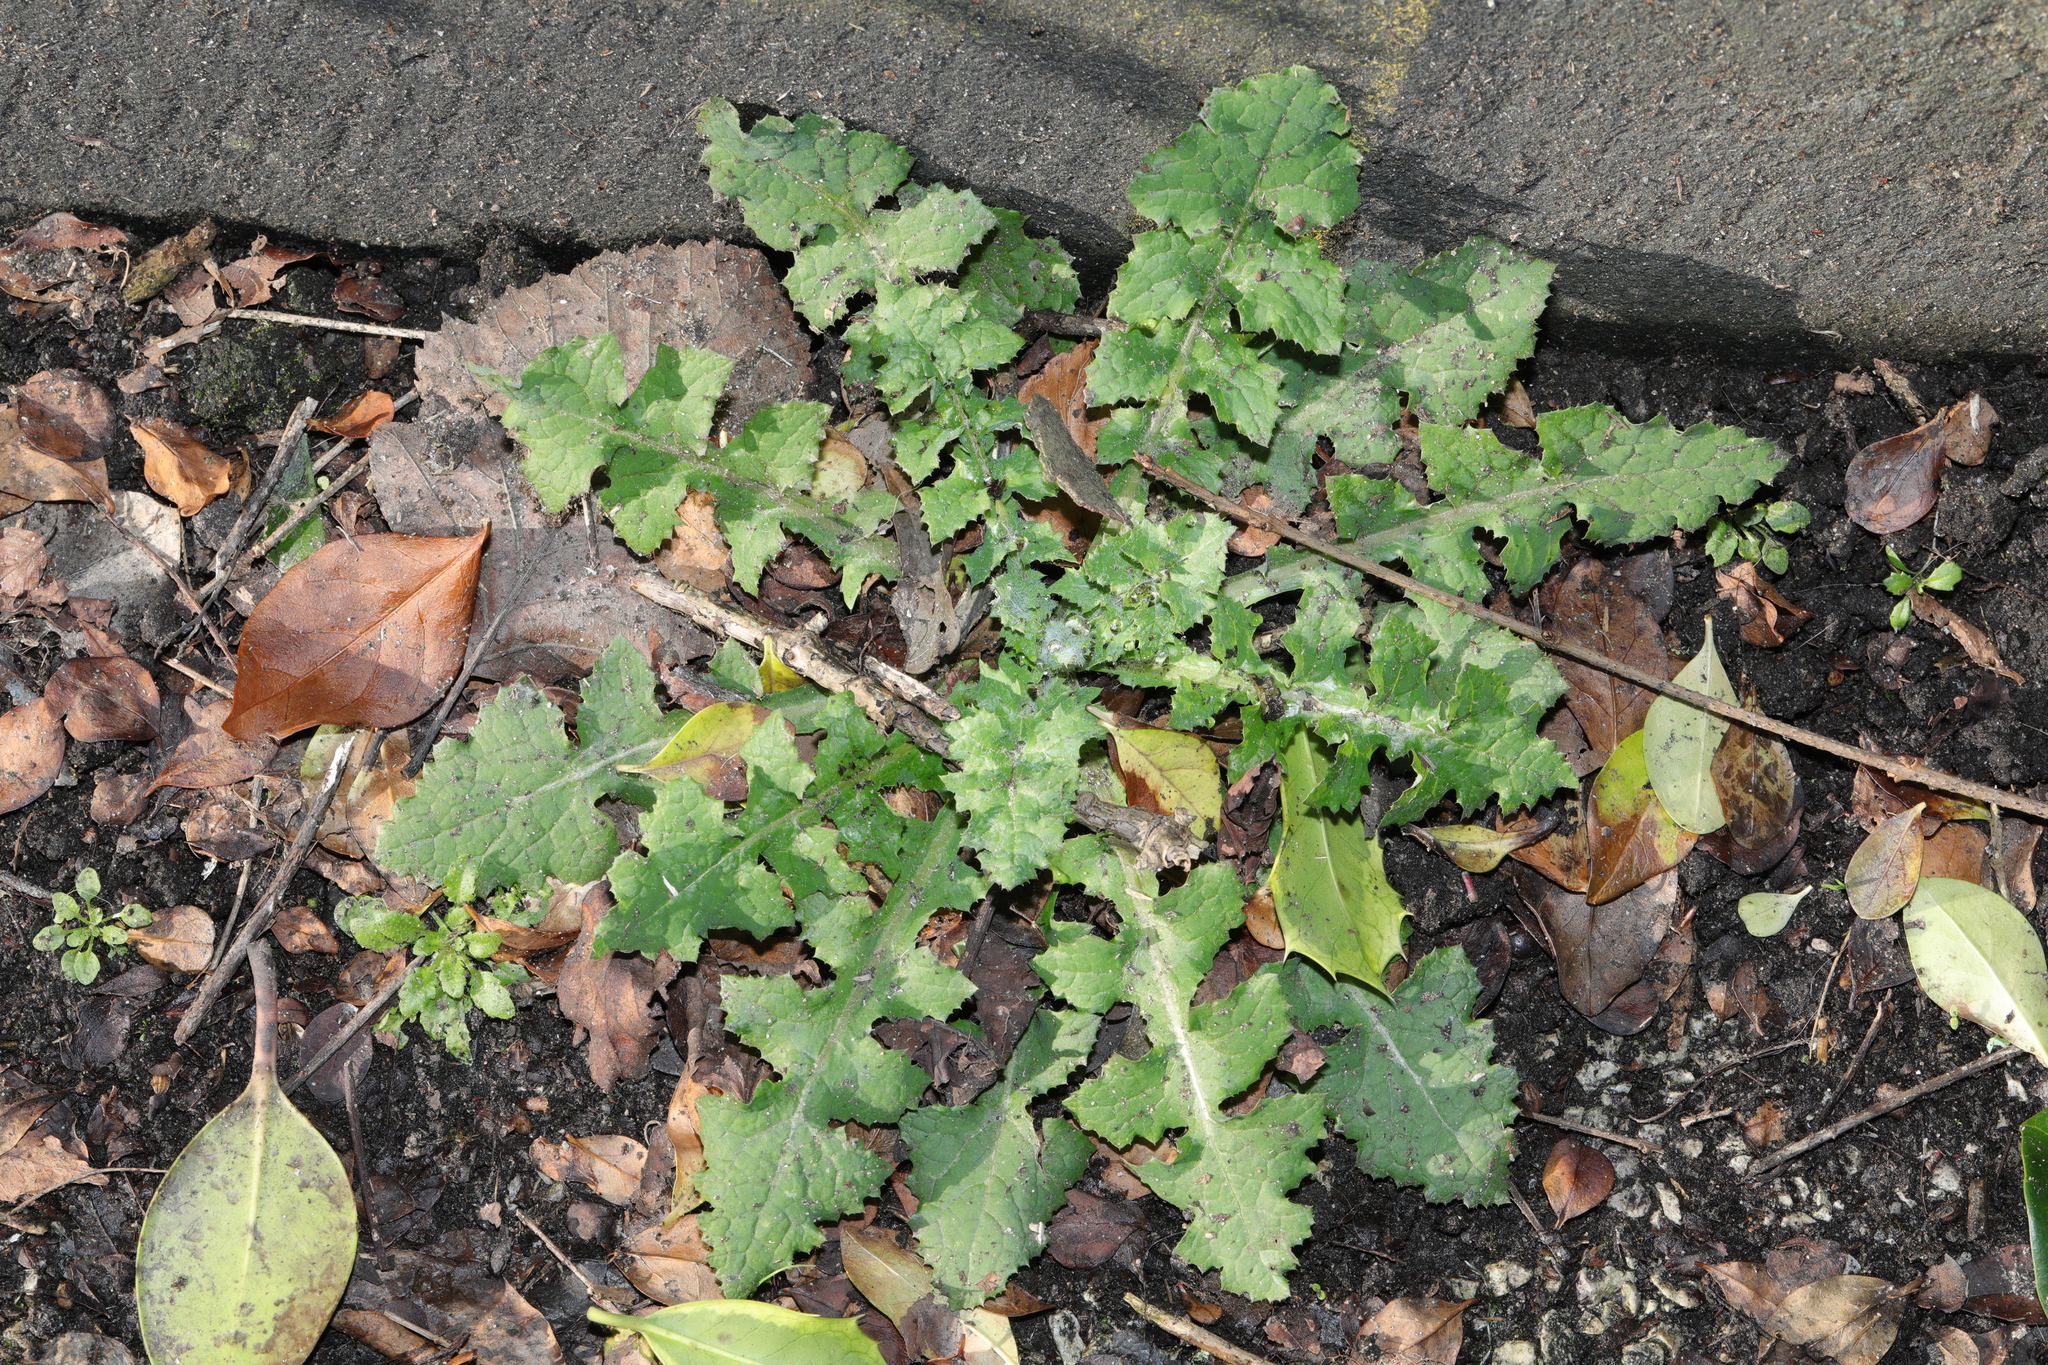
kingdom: Plantae
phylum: Tracheophyta
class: Magnoliopsida
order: Asterales
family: Asteraceae
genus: Sonchus
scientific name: Sonchus oleraceus
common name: Common sowthistle
